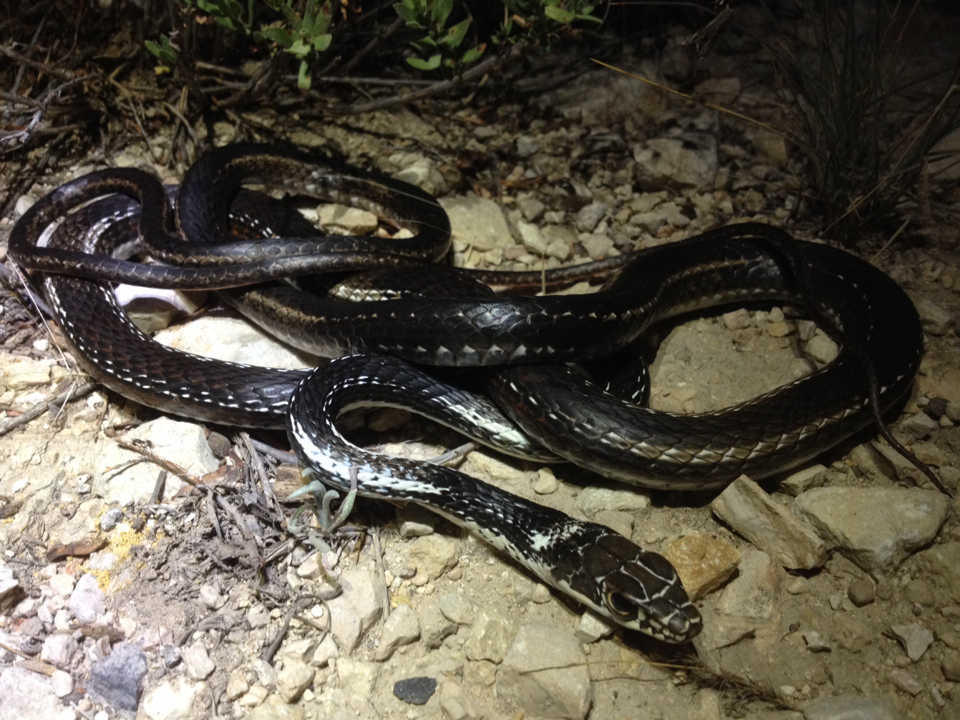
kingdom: Animalia
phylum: Chordata
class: Squamata
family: Colubridae
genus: Masticophis
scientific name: Masticophis taeniatus
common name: Striped whipsnake
